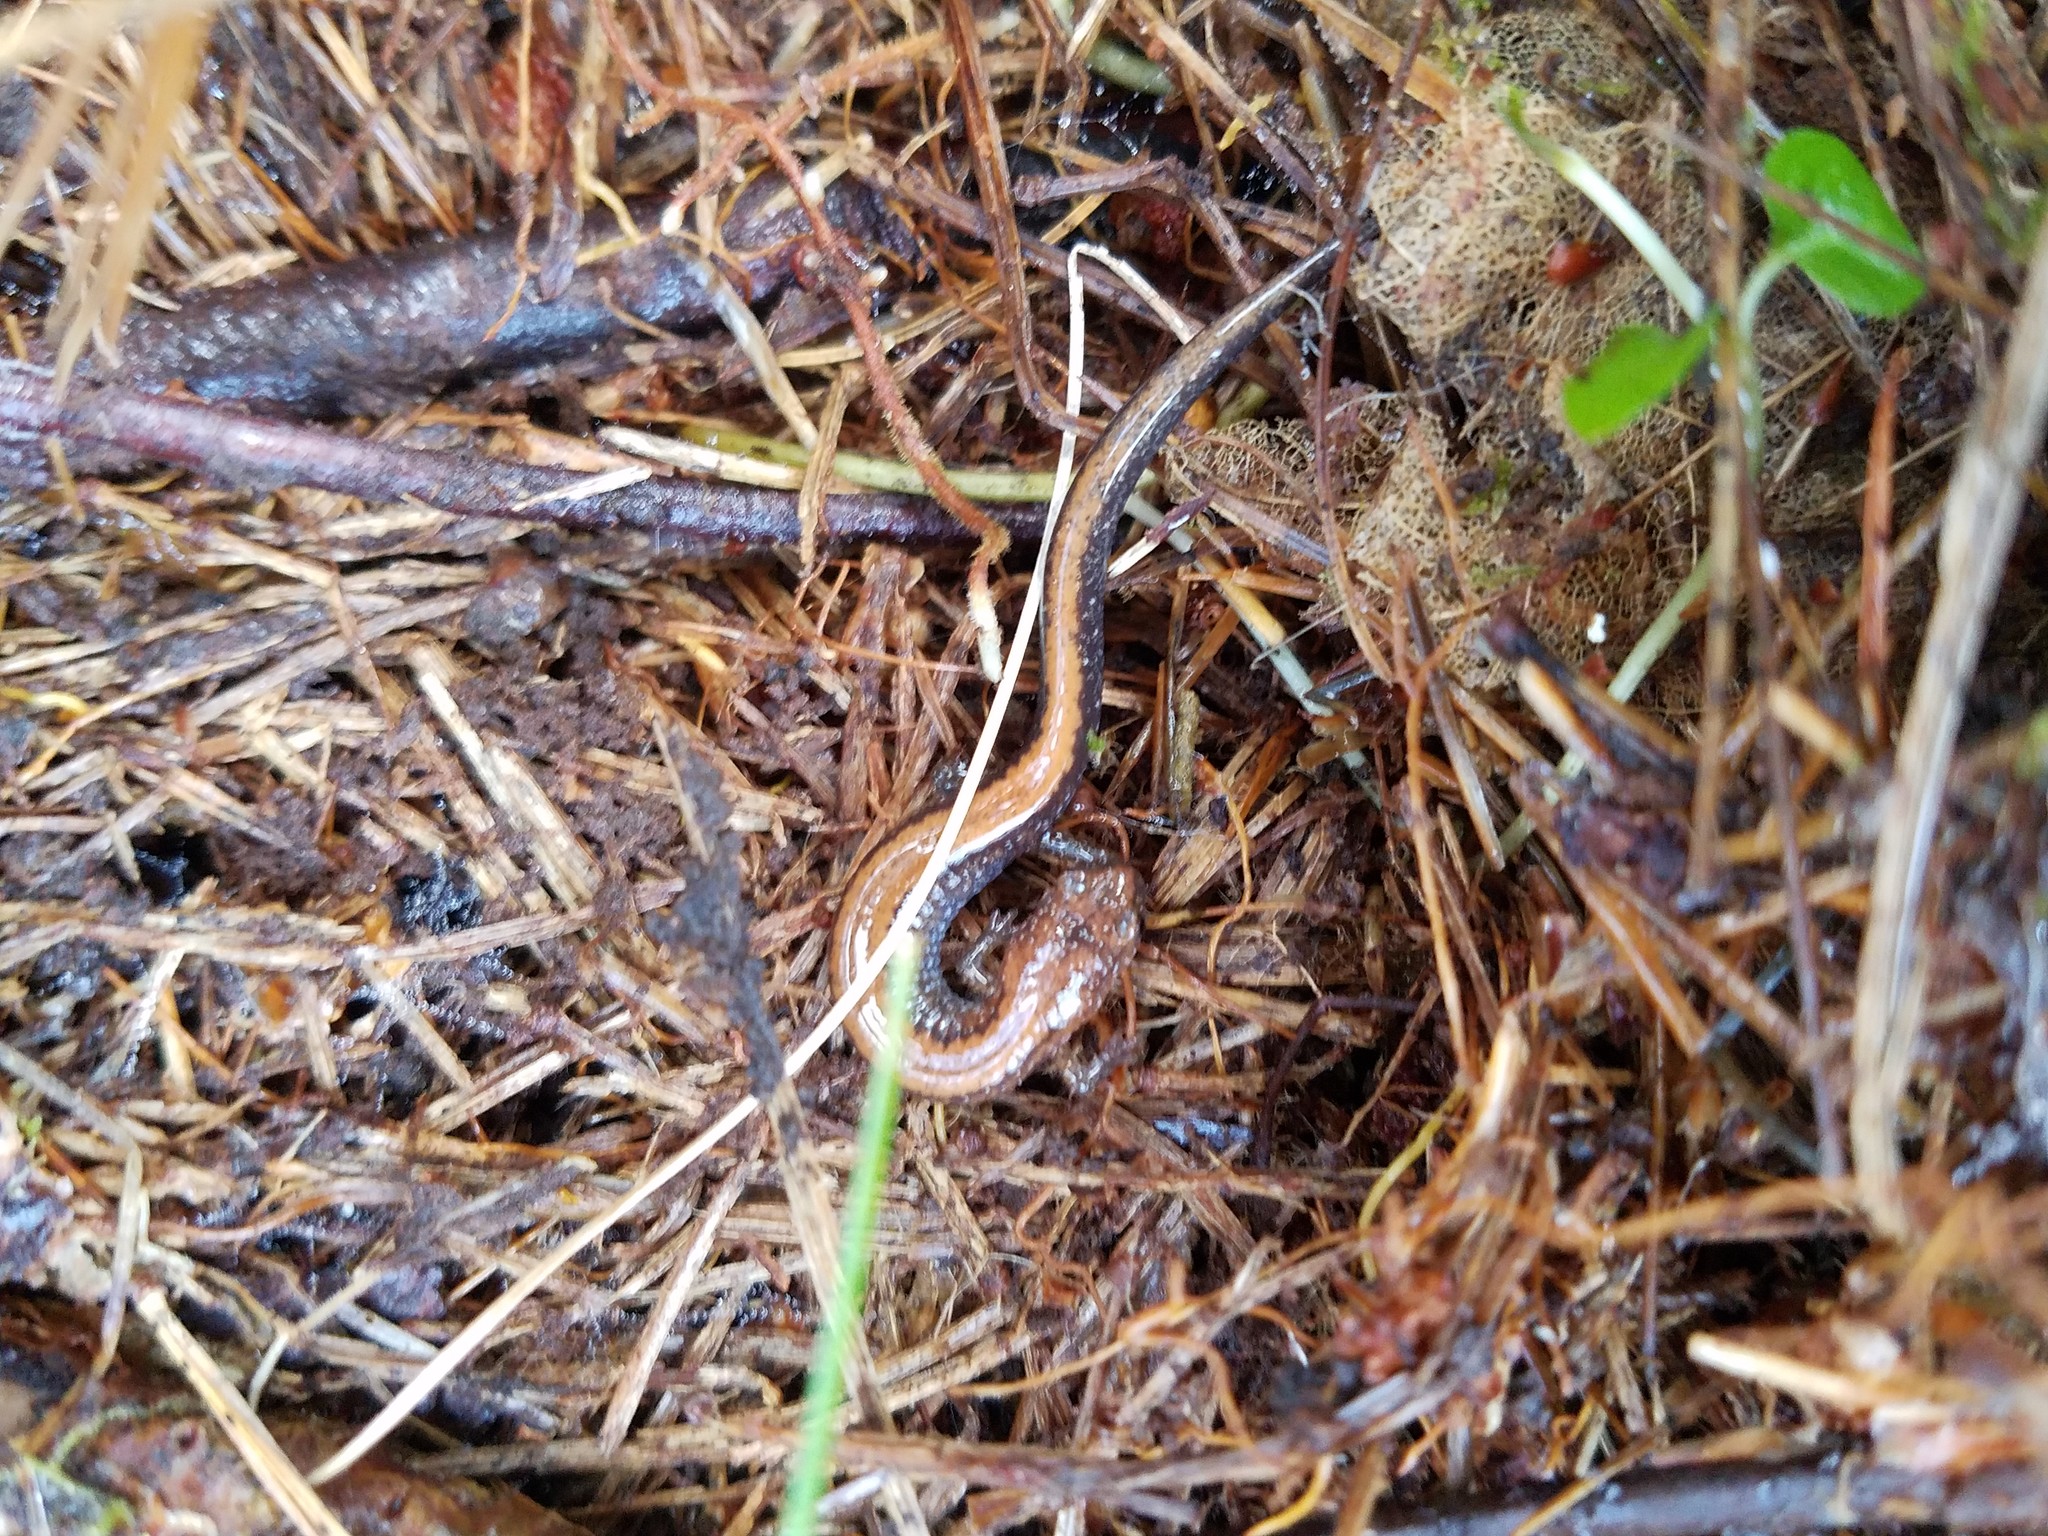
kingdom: Animalia
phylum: Chordata
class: Amphibia
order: Caudata
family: Plethodontidae
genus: Plethodon
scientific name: Plethodon cinereus
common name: Redback salamander
